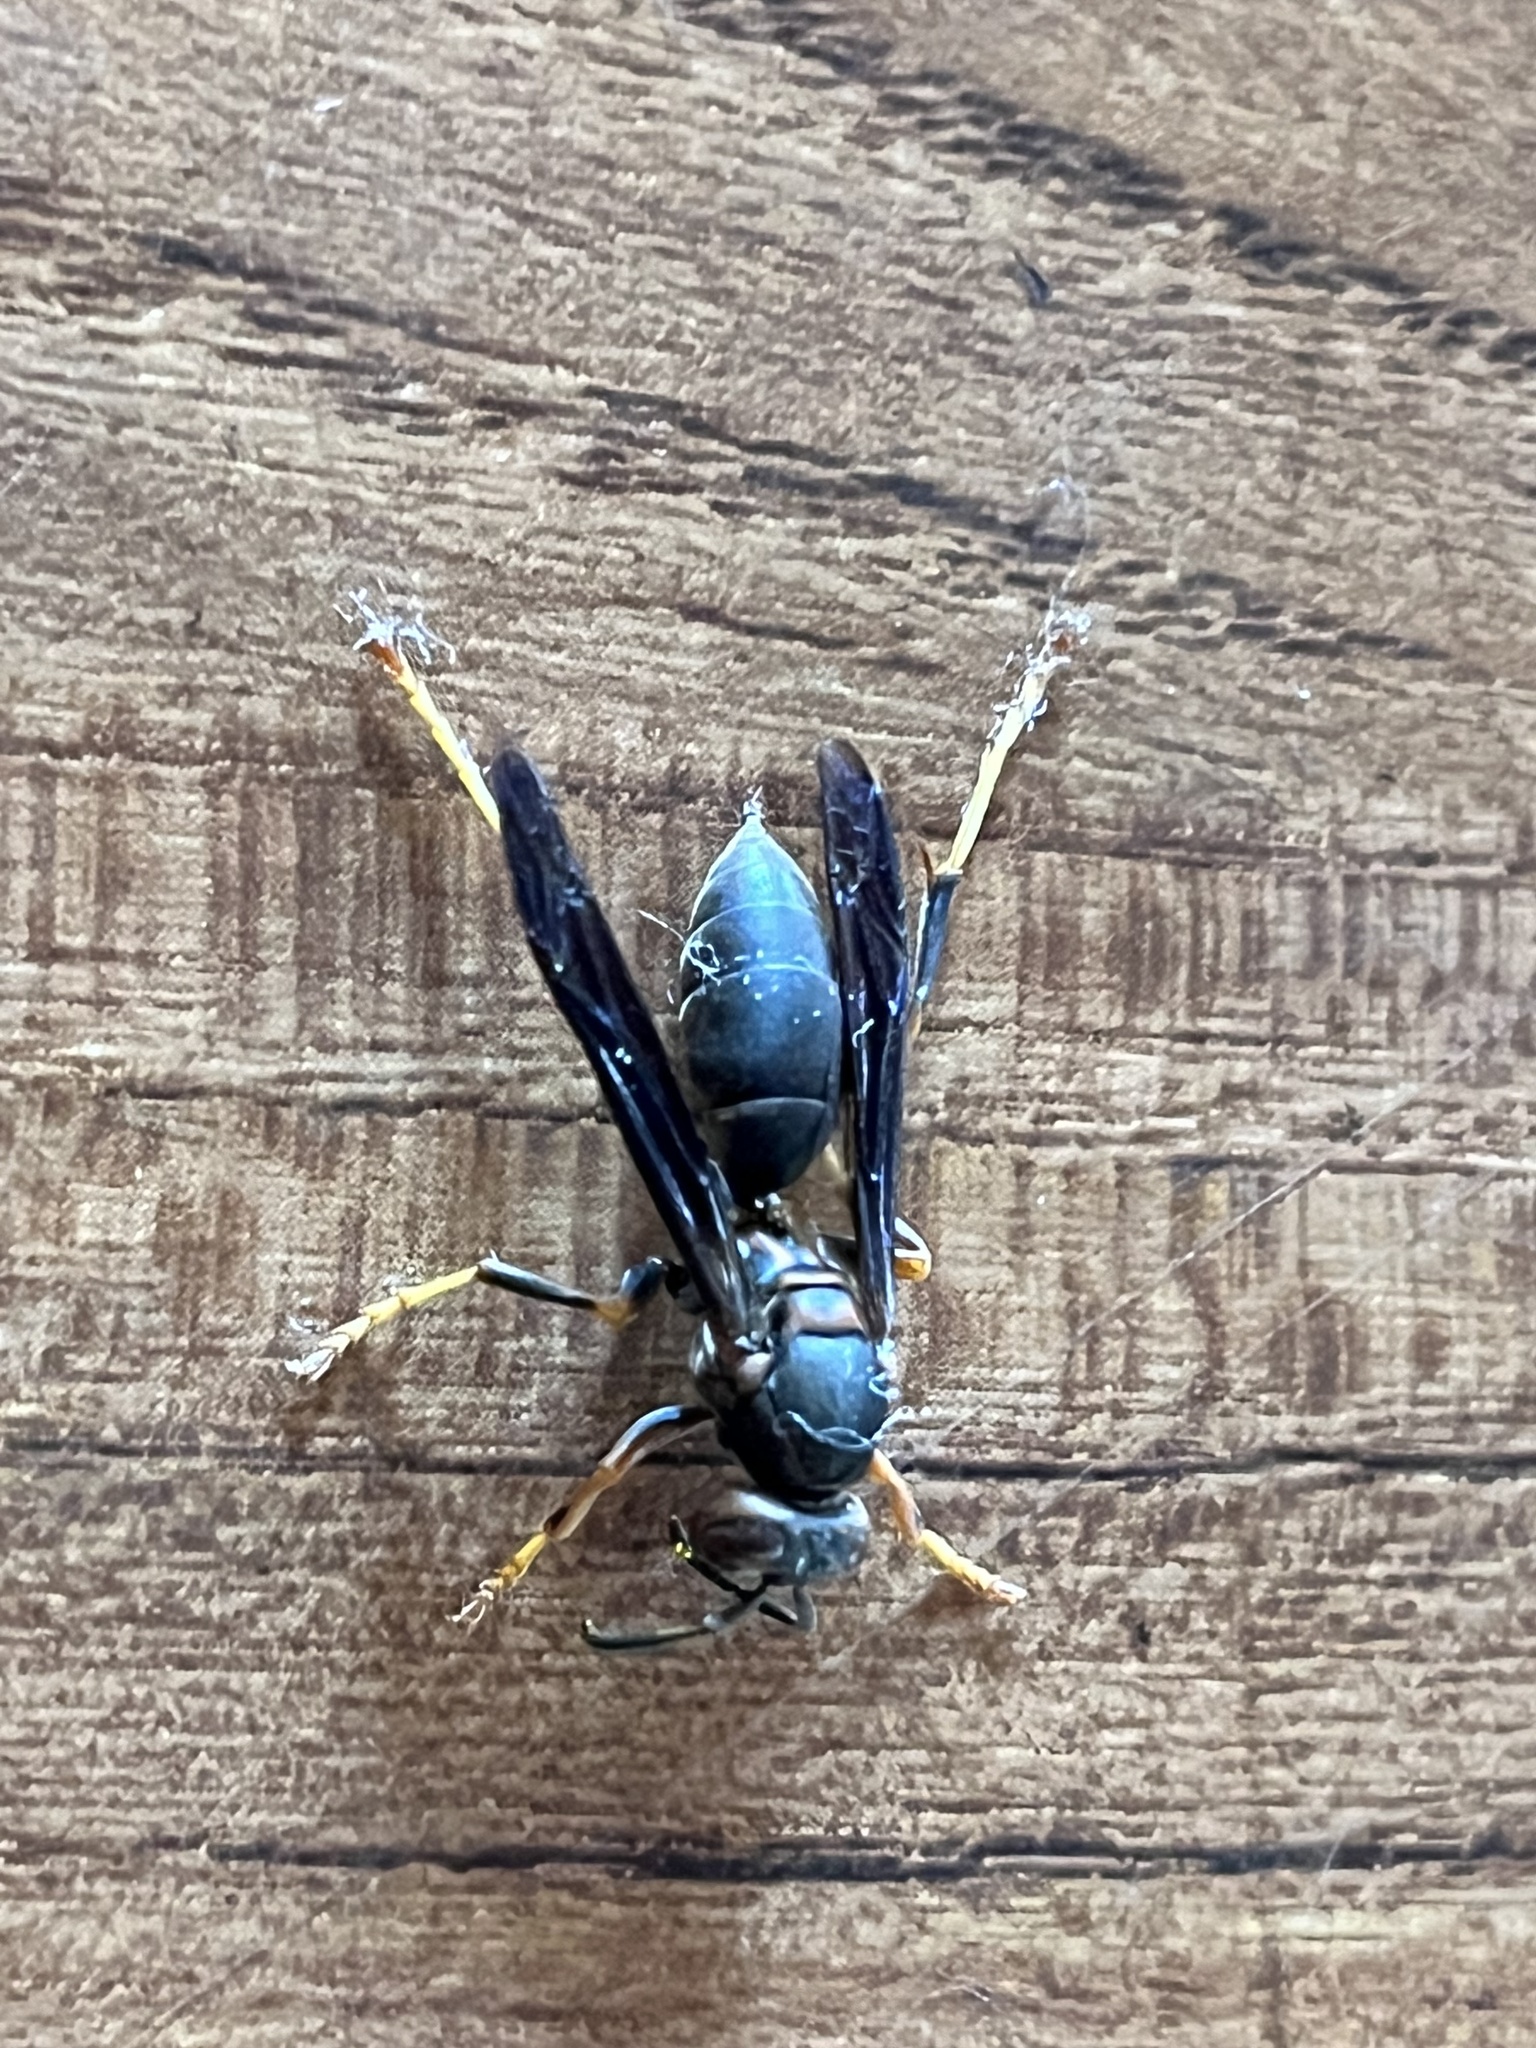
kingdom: Animalia
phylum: Arthropoda
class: Insecta
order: Hymenoptera
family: Eumenidae
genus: Polistes
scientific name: Polistes metricus
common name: Metric paper wasp
